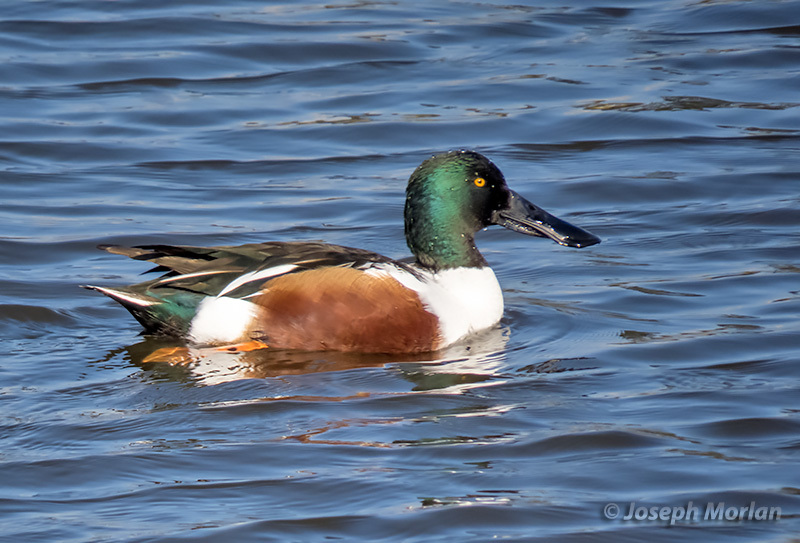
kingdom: Animalia
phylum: Chordata
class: Aves
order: Anseriformes
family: Anatidae
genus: Spatula
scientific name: Spatula clypeata
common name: Northern shoveler
